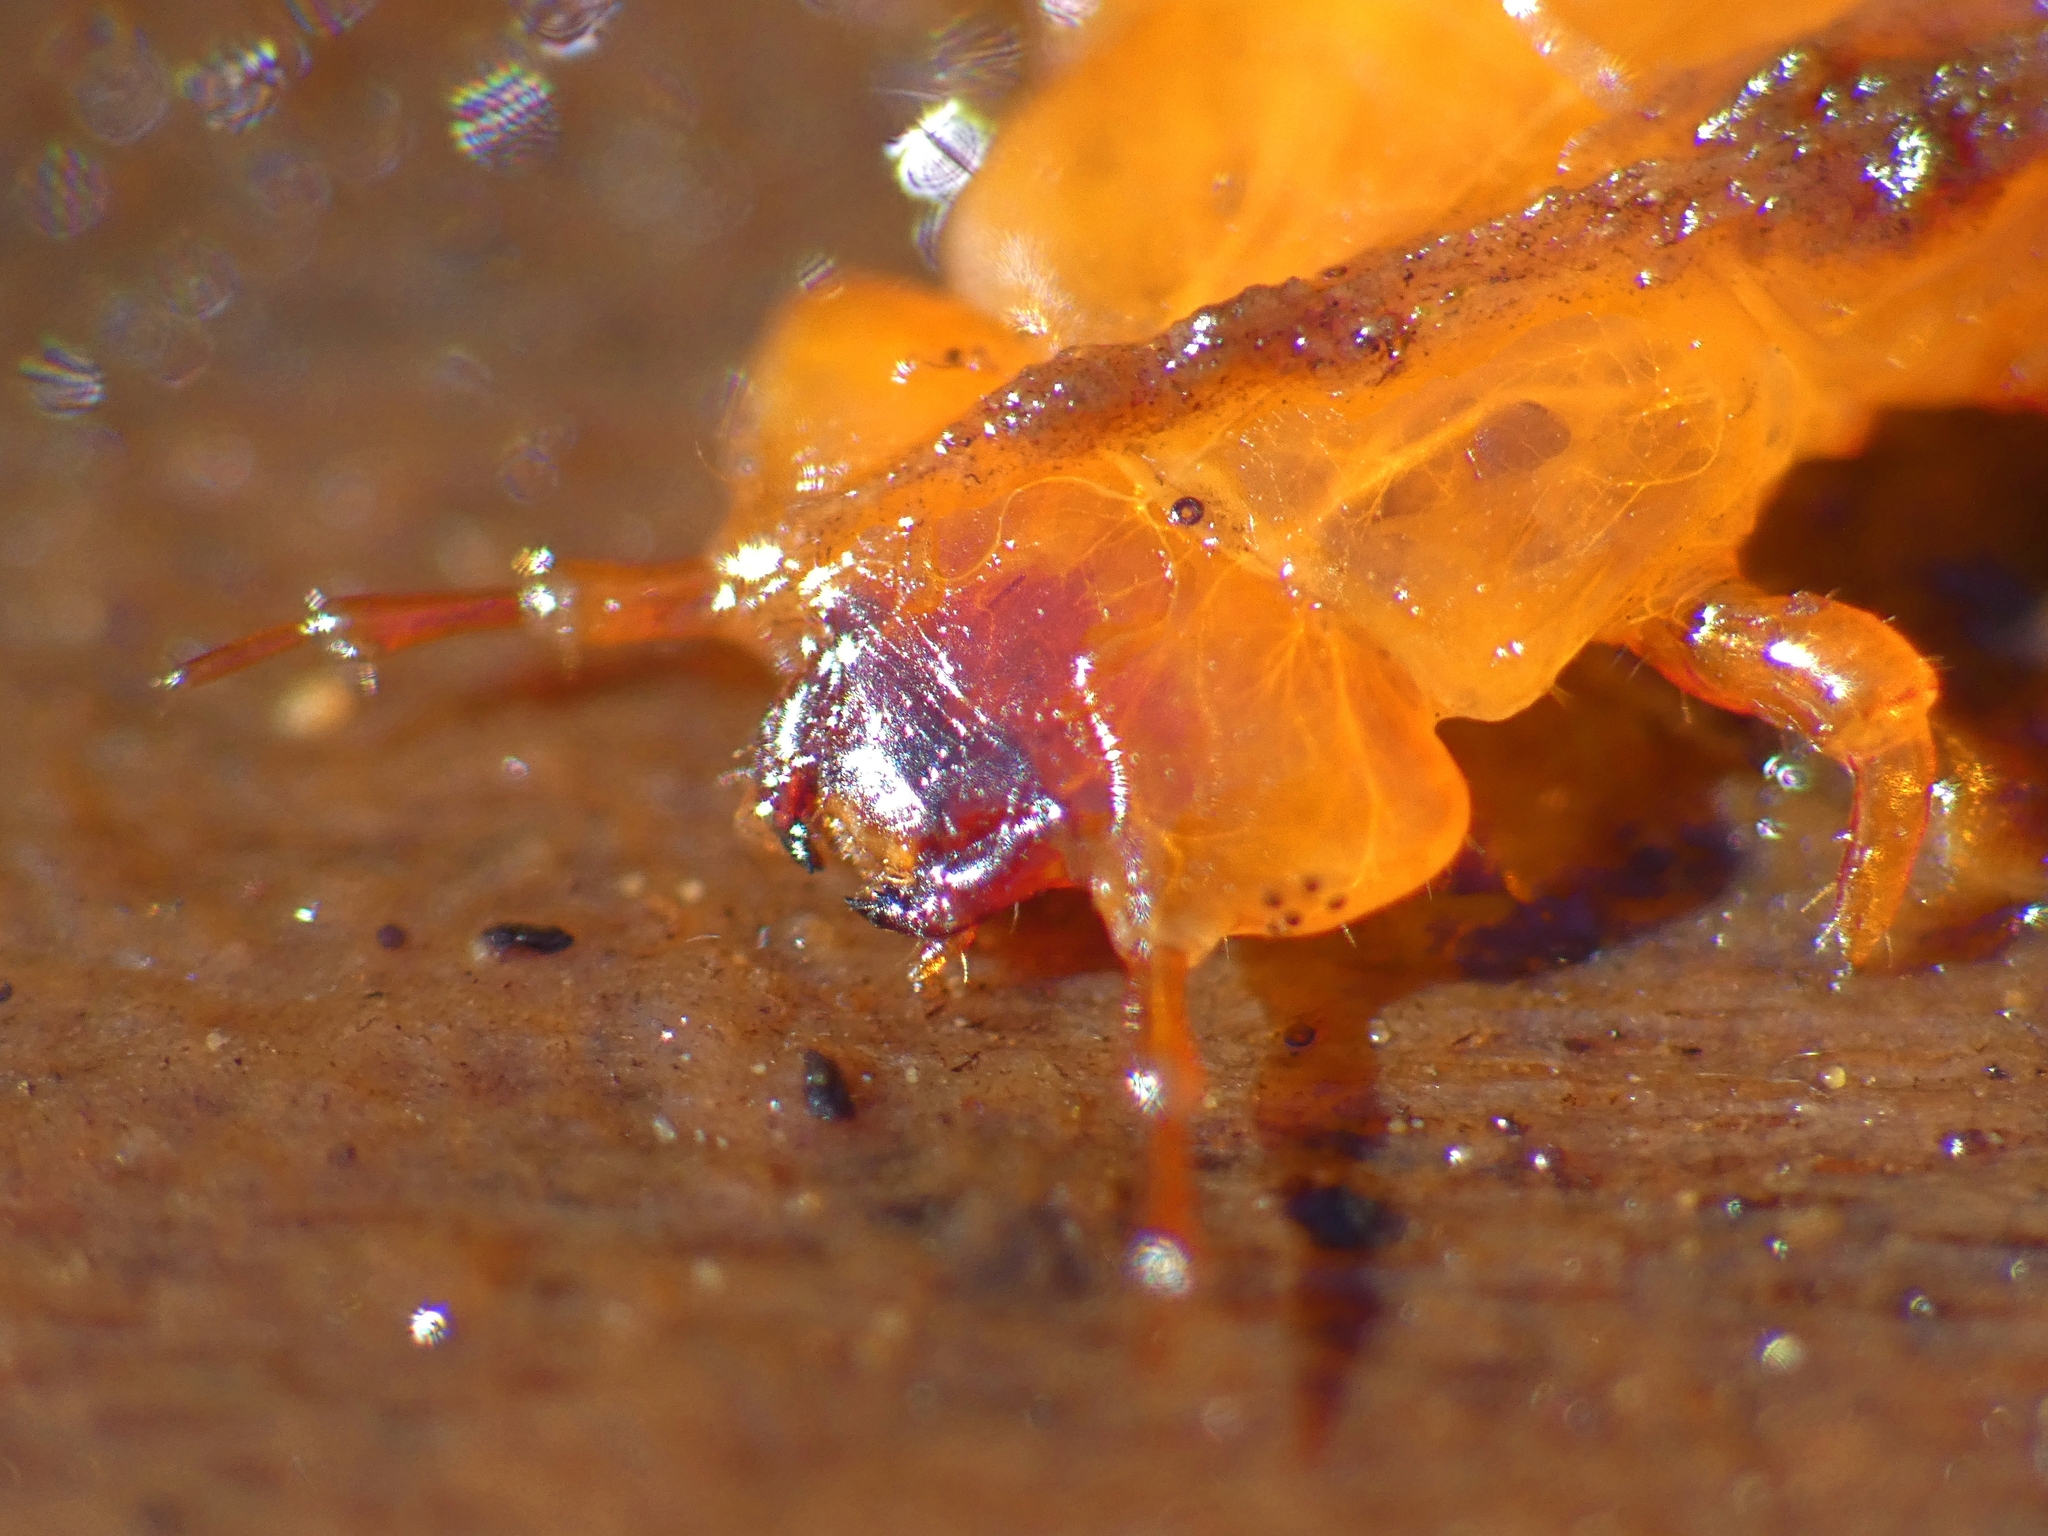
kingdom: Animalia
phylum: Arthropoda
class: Insecta
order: Coleoptera
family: Cucujidae
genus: Cucujus
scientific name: Cucujus clavipes
